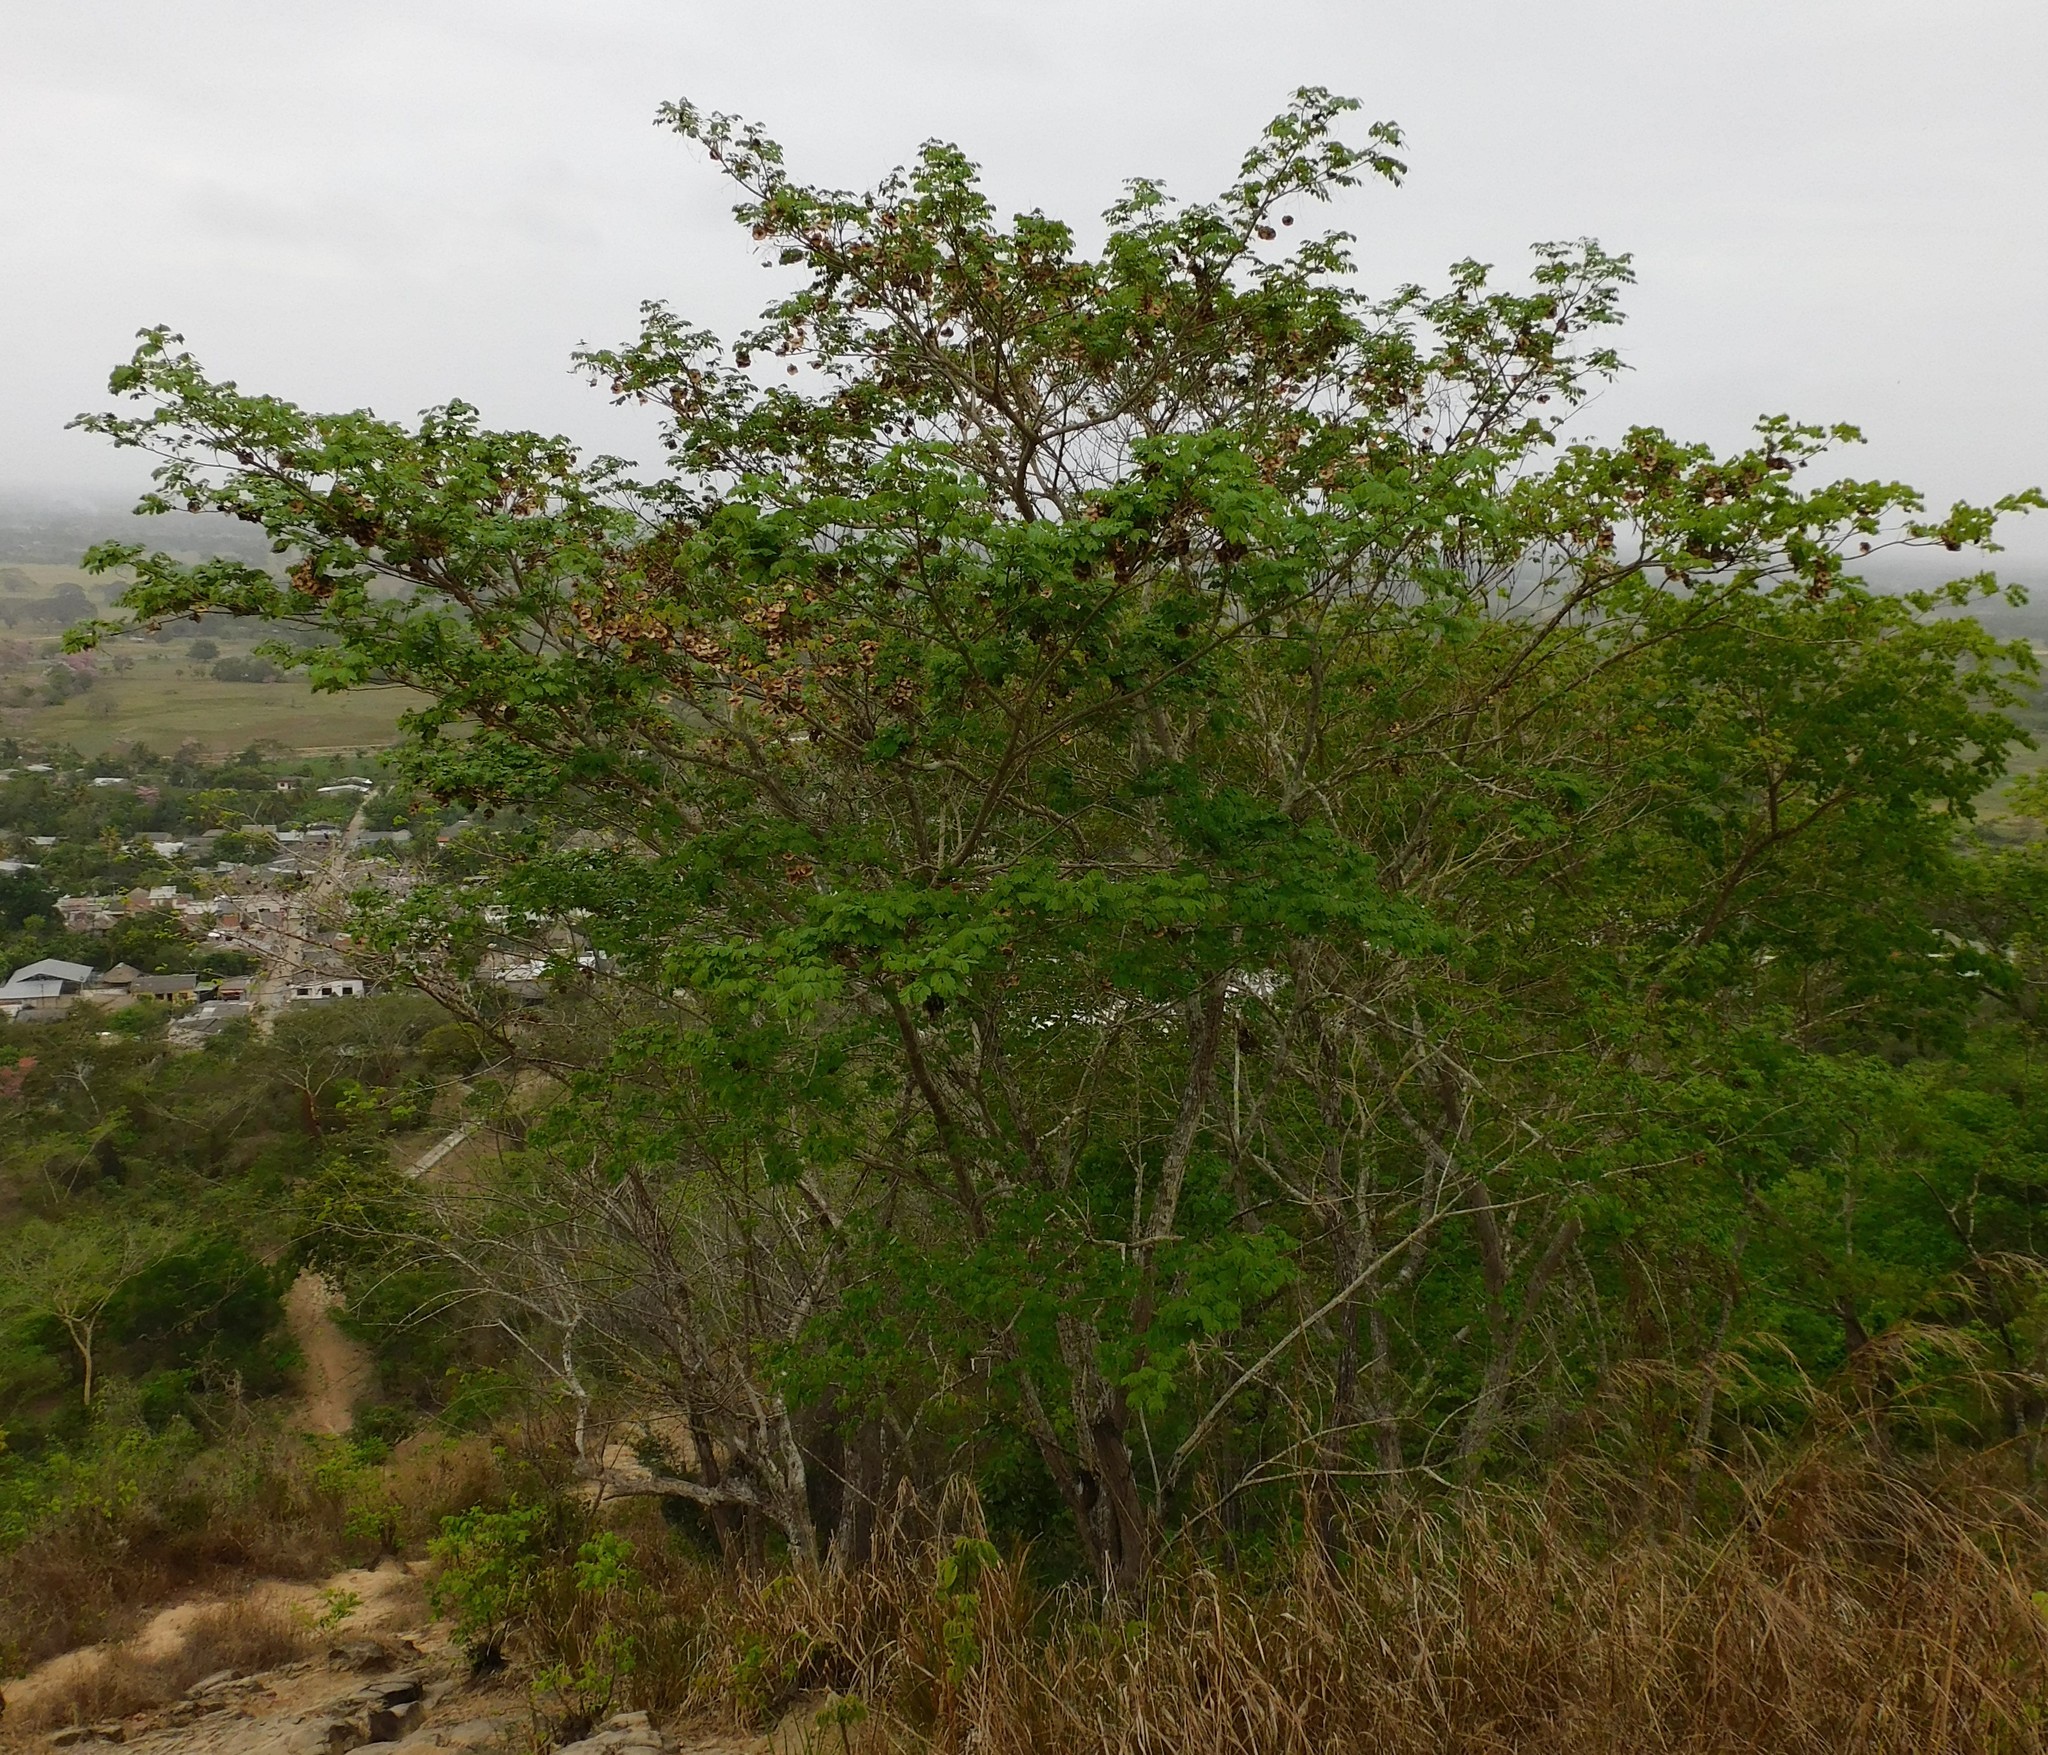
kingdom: Plantae
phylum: Tracheophyta
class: Magnoliopsida
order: Fabales
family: Fabaceae
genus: Pterocarpus
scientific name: Pterocarpus acapulcensis
